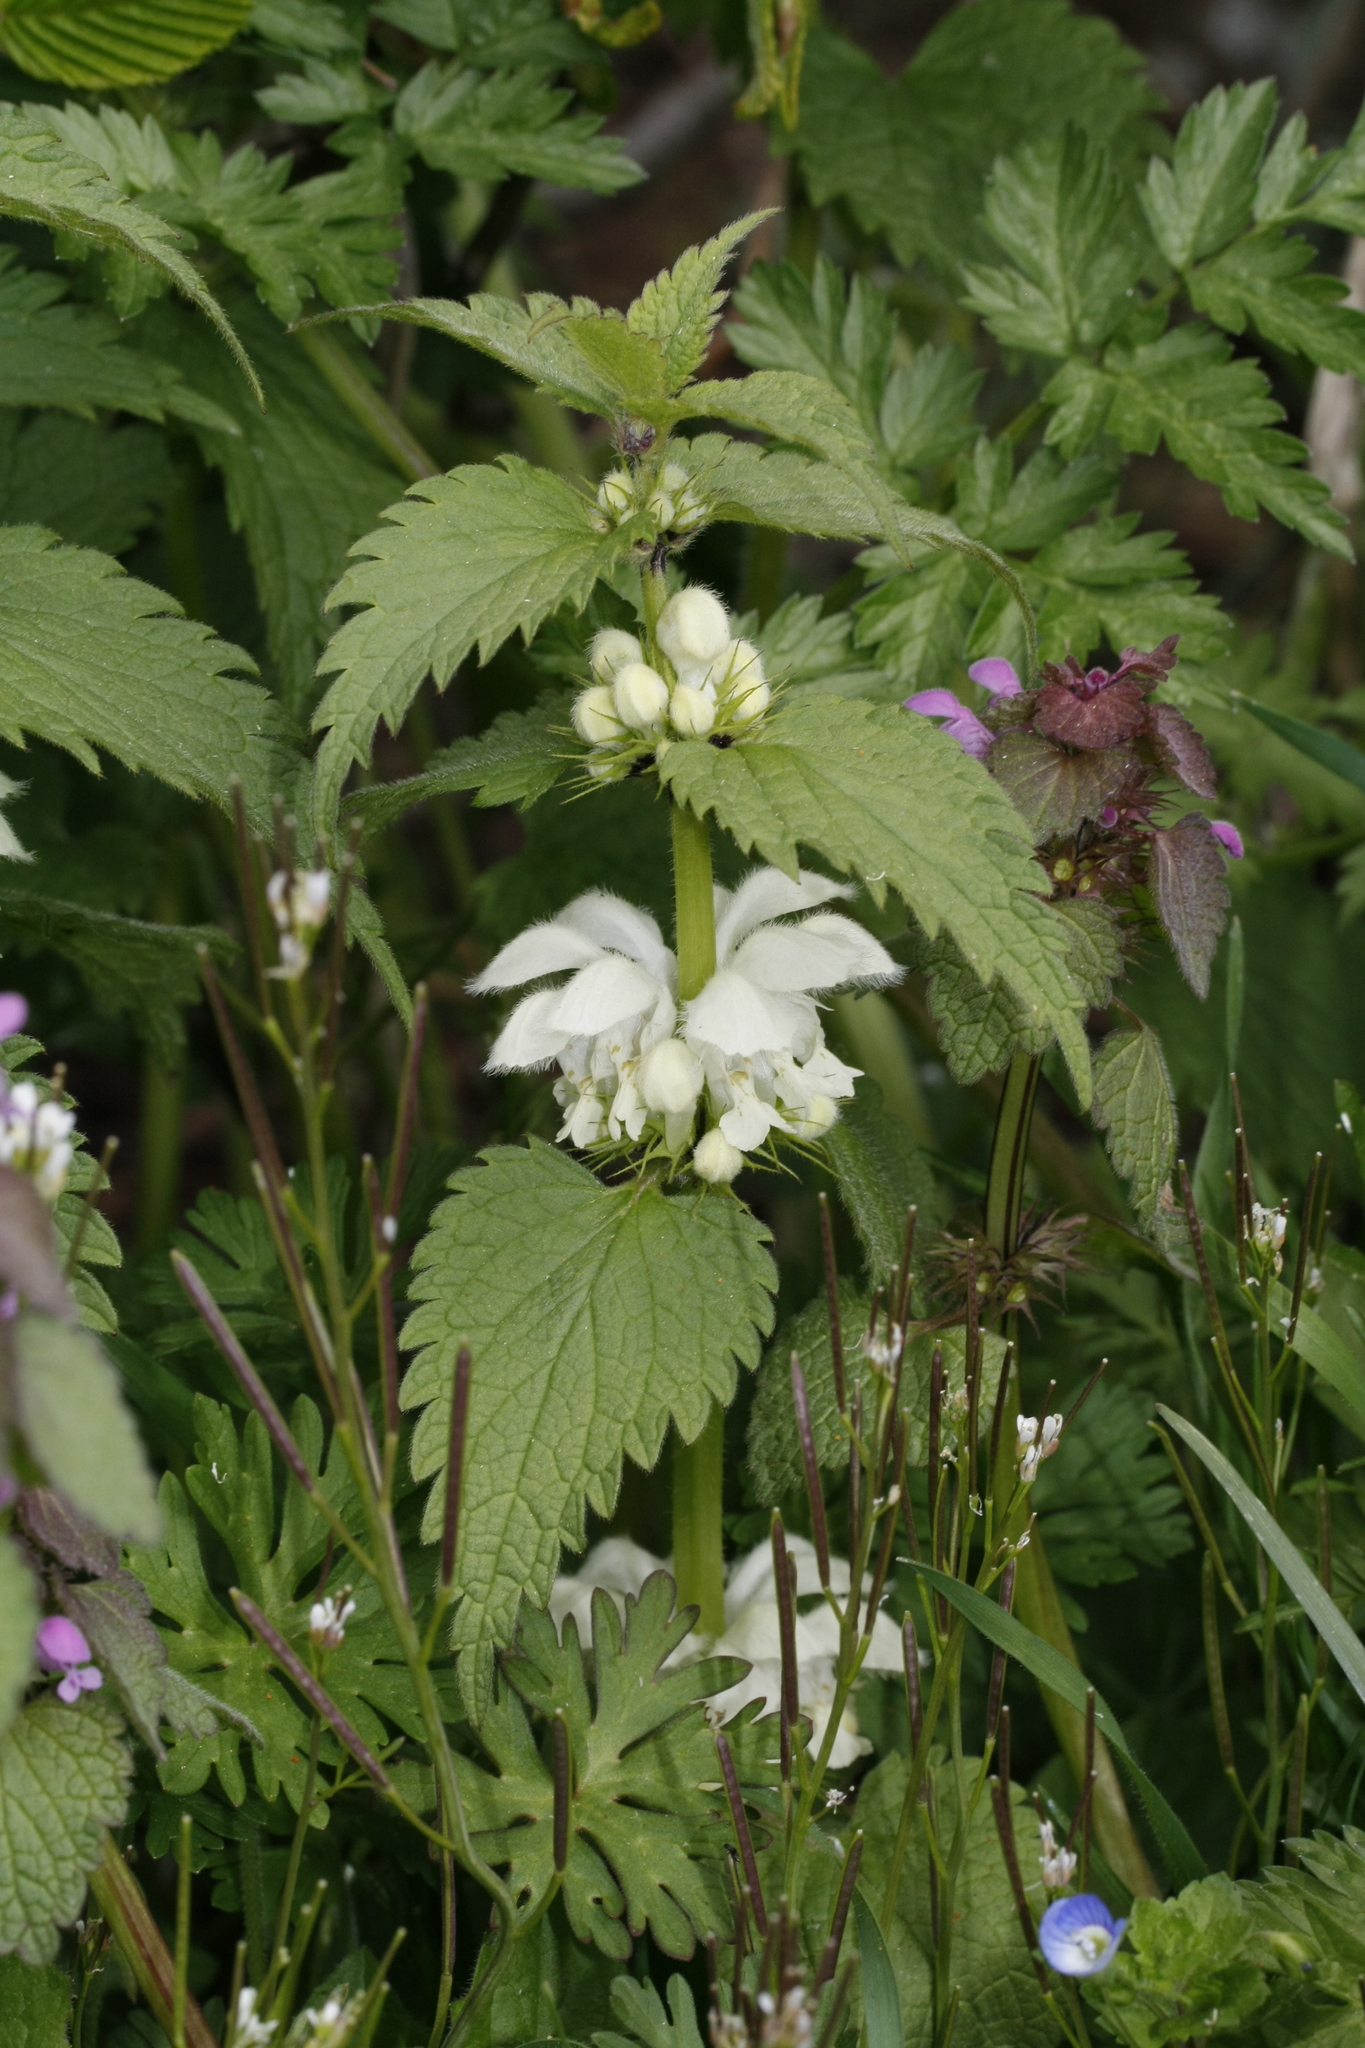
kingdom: Plantae
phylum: Tracheophyta
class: Magnoliopsida
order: Lamiales
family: Lamiaceae
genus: Lamium
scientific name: Lamium album
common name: White dead-nettle
